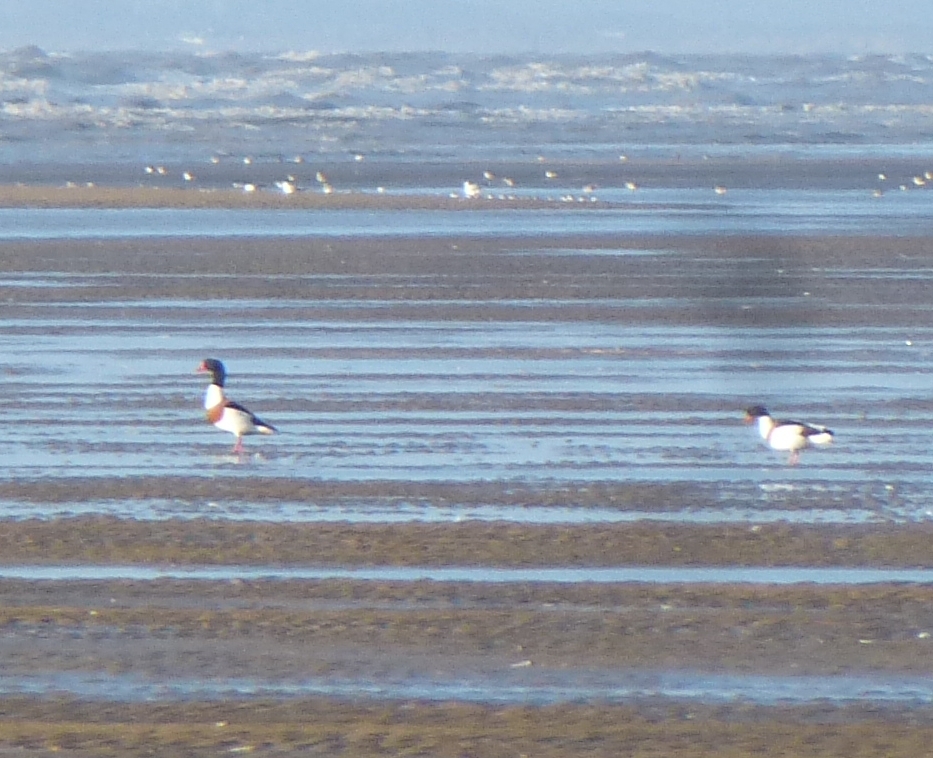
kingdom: Animalia
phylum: Chordata
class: Aves
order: Anseriformes
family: Anatidae
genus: Tadorna
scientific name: Tadorna tadorna
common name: Common shelduck
